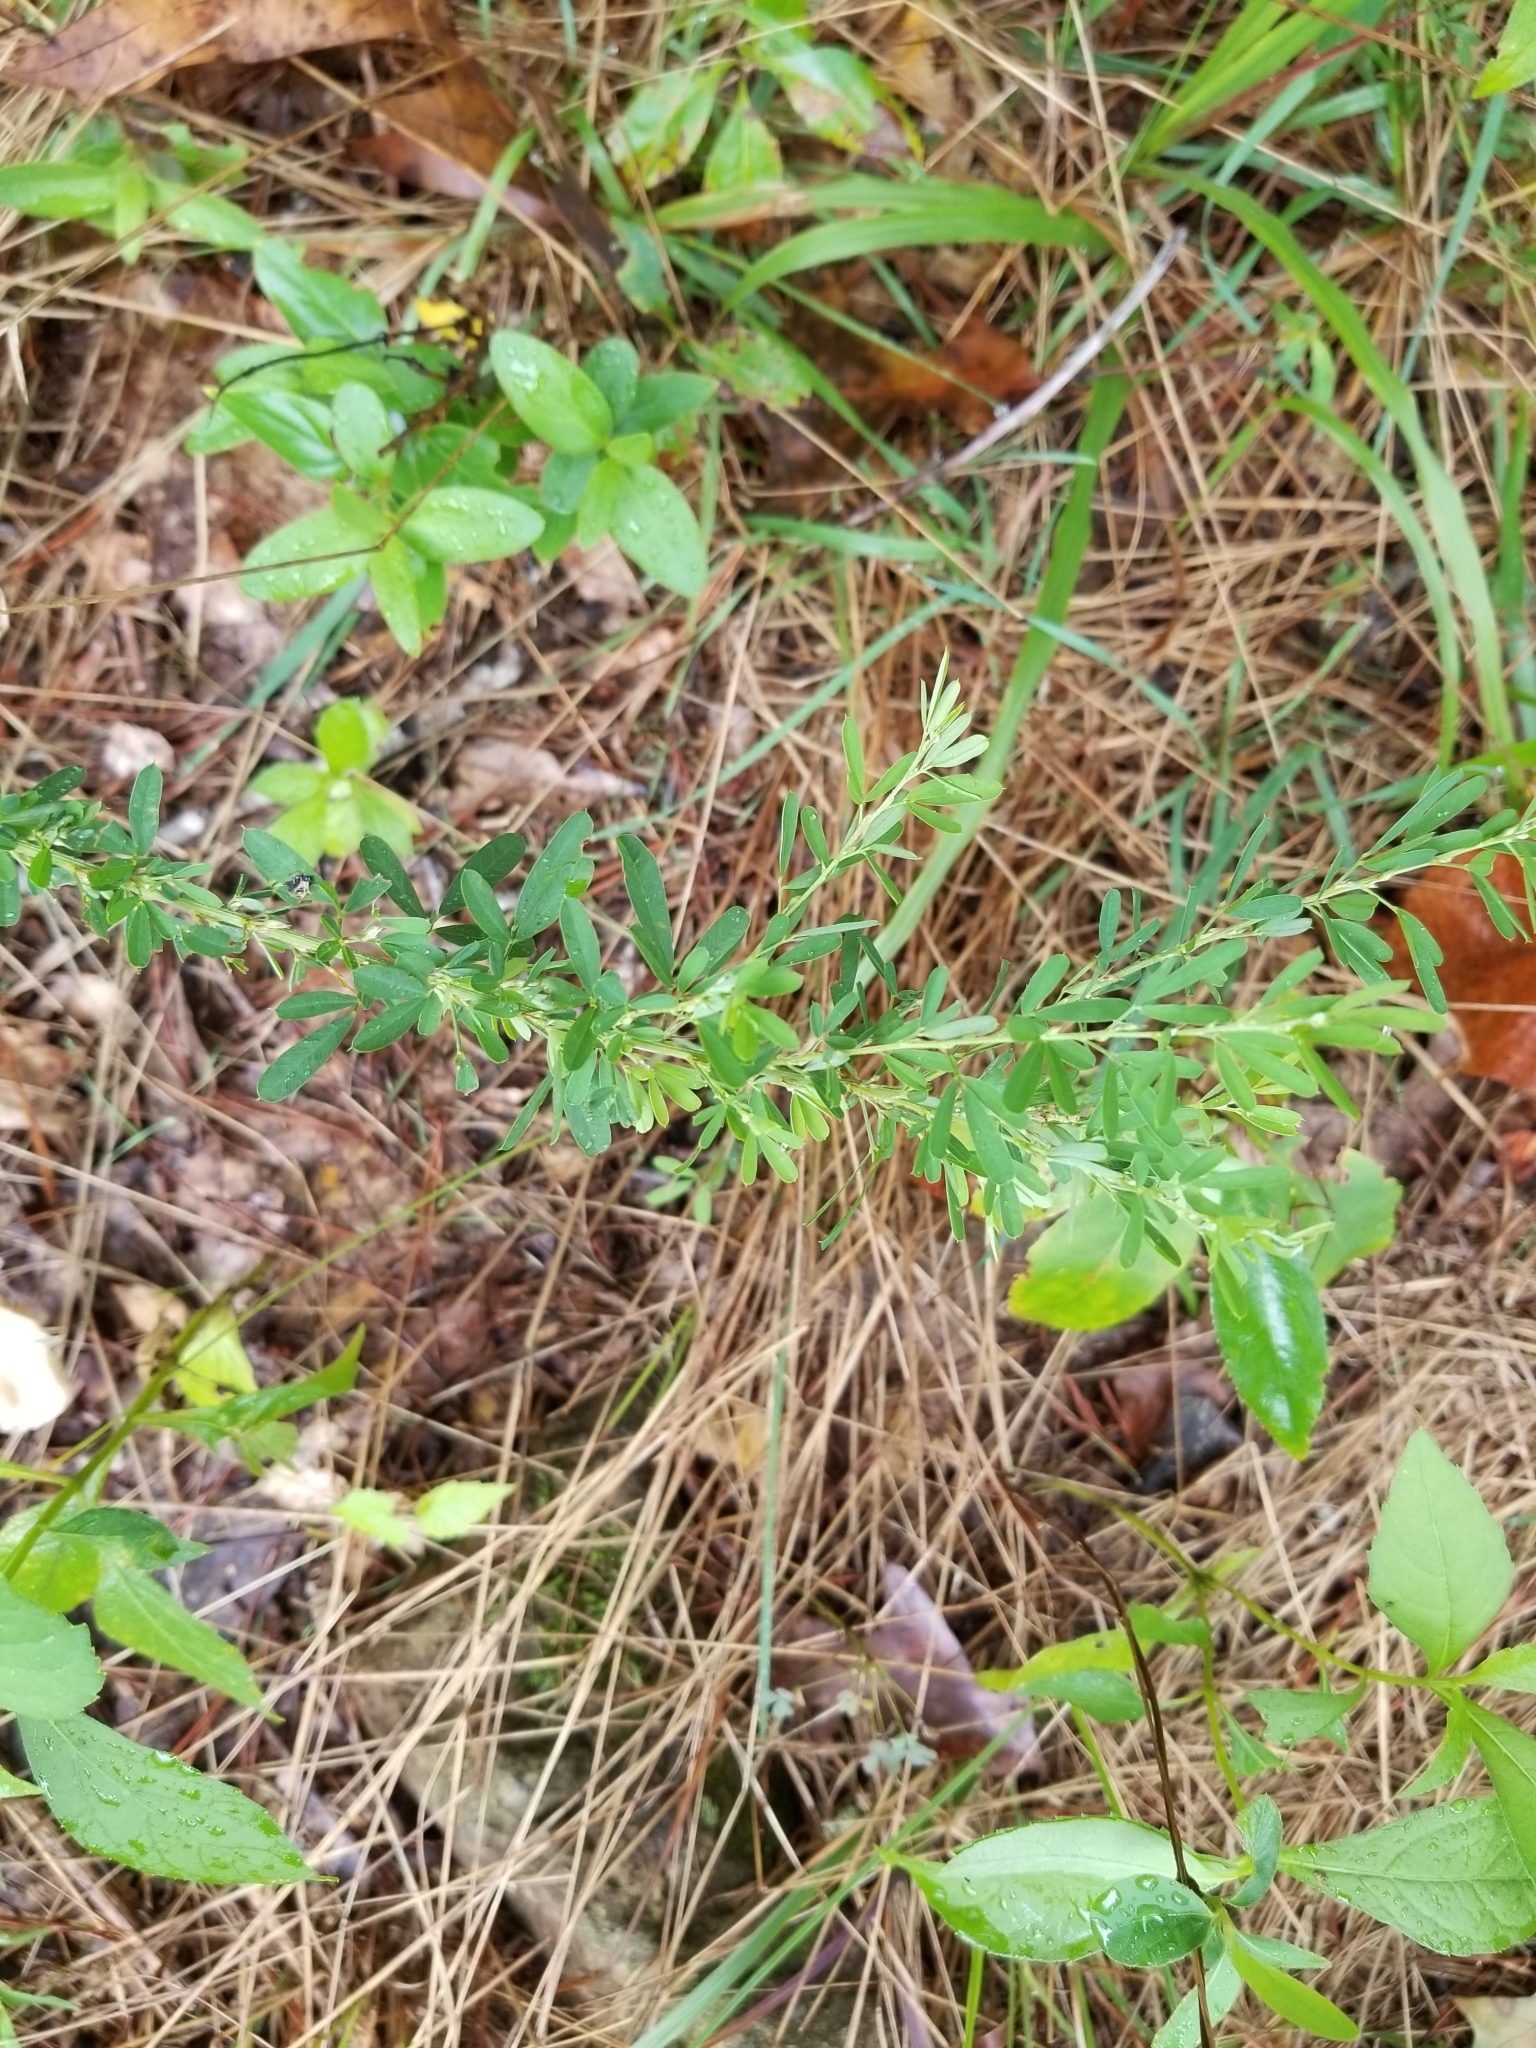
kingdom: Plantae
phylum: Tracheophyta
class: Magnoliopsida
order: Fabales
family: Fabaceae
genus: Lespedeza
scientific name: Lespedeza cuneata
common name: Chinese bush-clover
